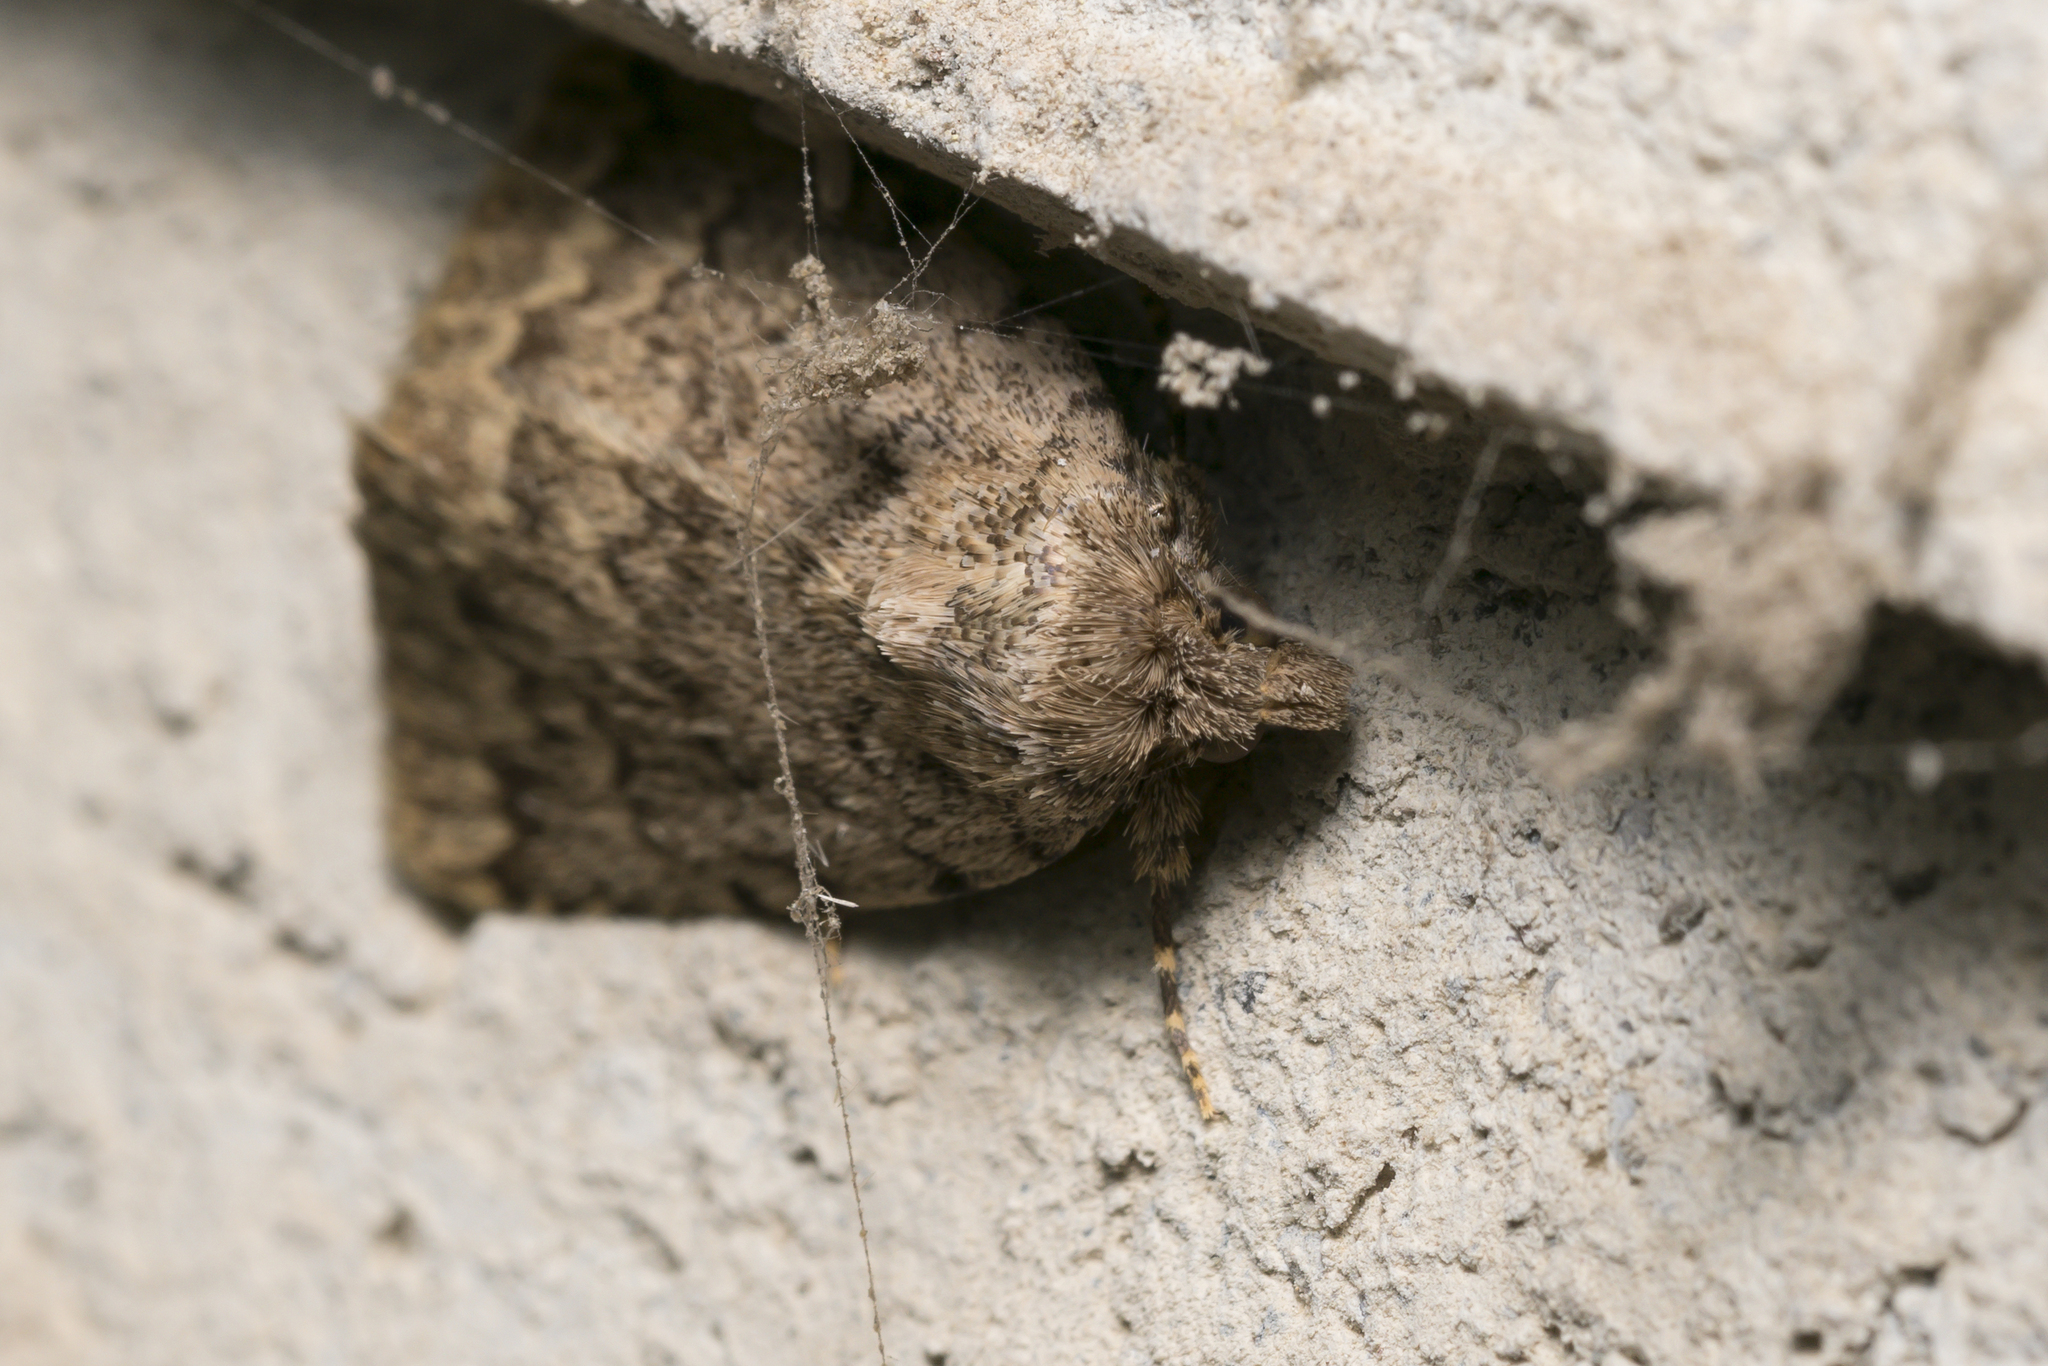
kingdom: Animalia
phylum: Arthropoda
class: Insecta
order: Lepidoptera
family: Erebidae
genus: Autophila
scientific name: Autophila anaphanes
